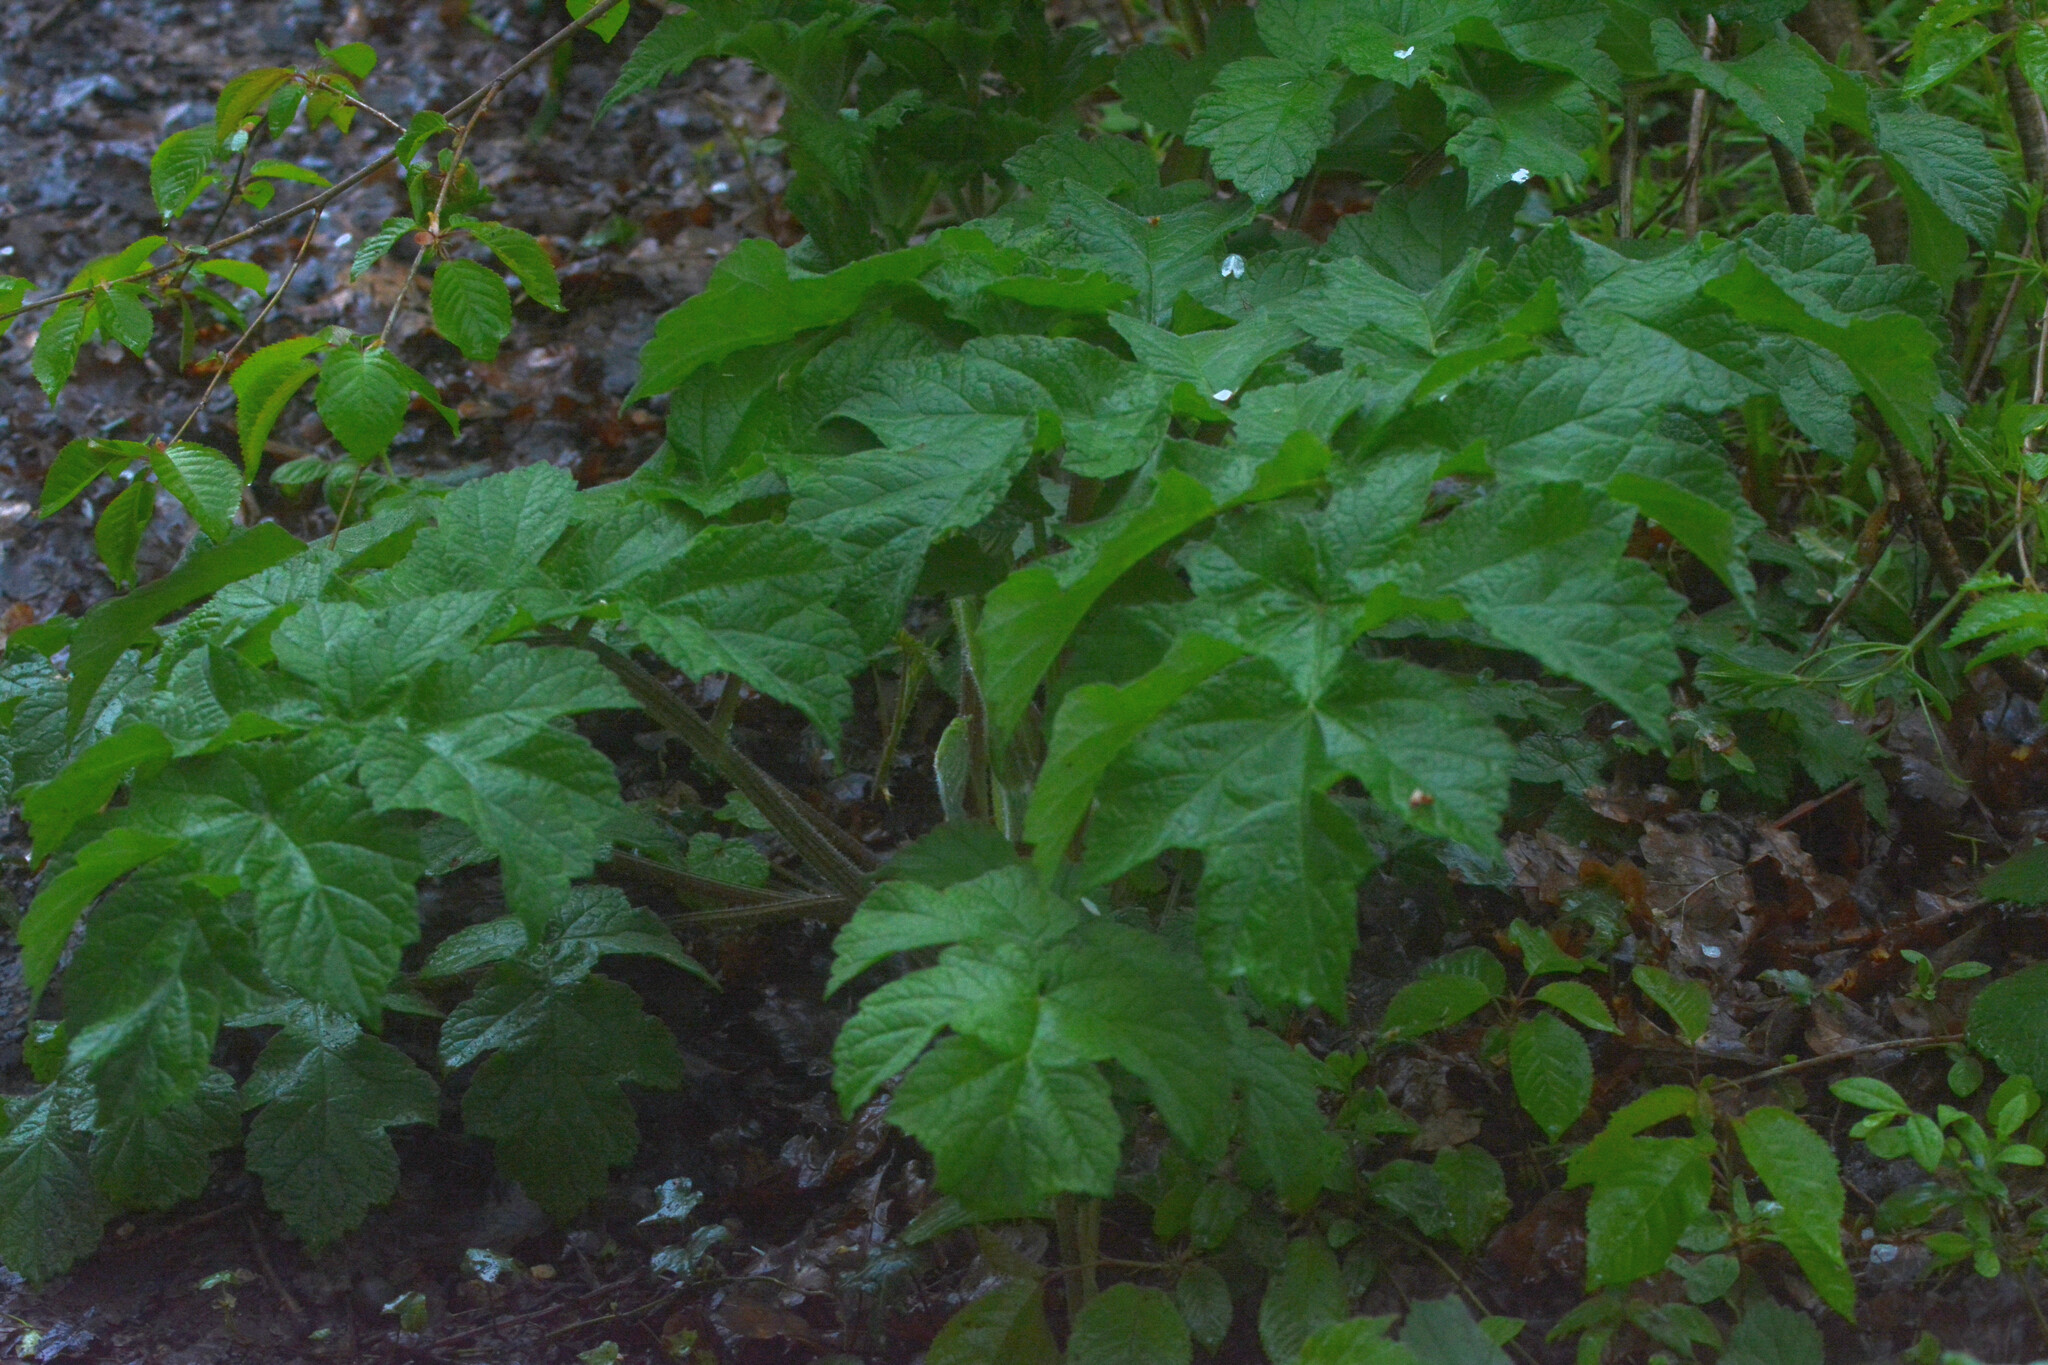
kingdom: Plantae
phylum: Tracheophyta
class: Magnoliopsida
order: Apiales
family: Apiaceae
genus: Heracleum
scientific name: Heracleum sphondylium
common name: Hogweed
